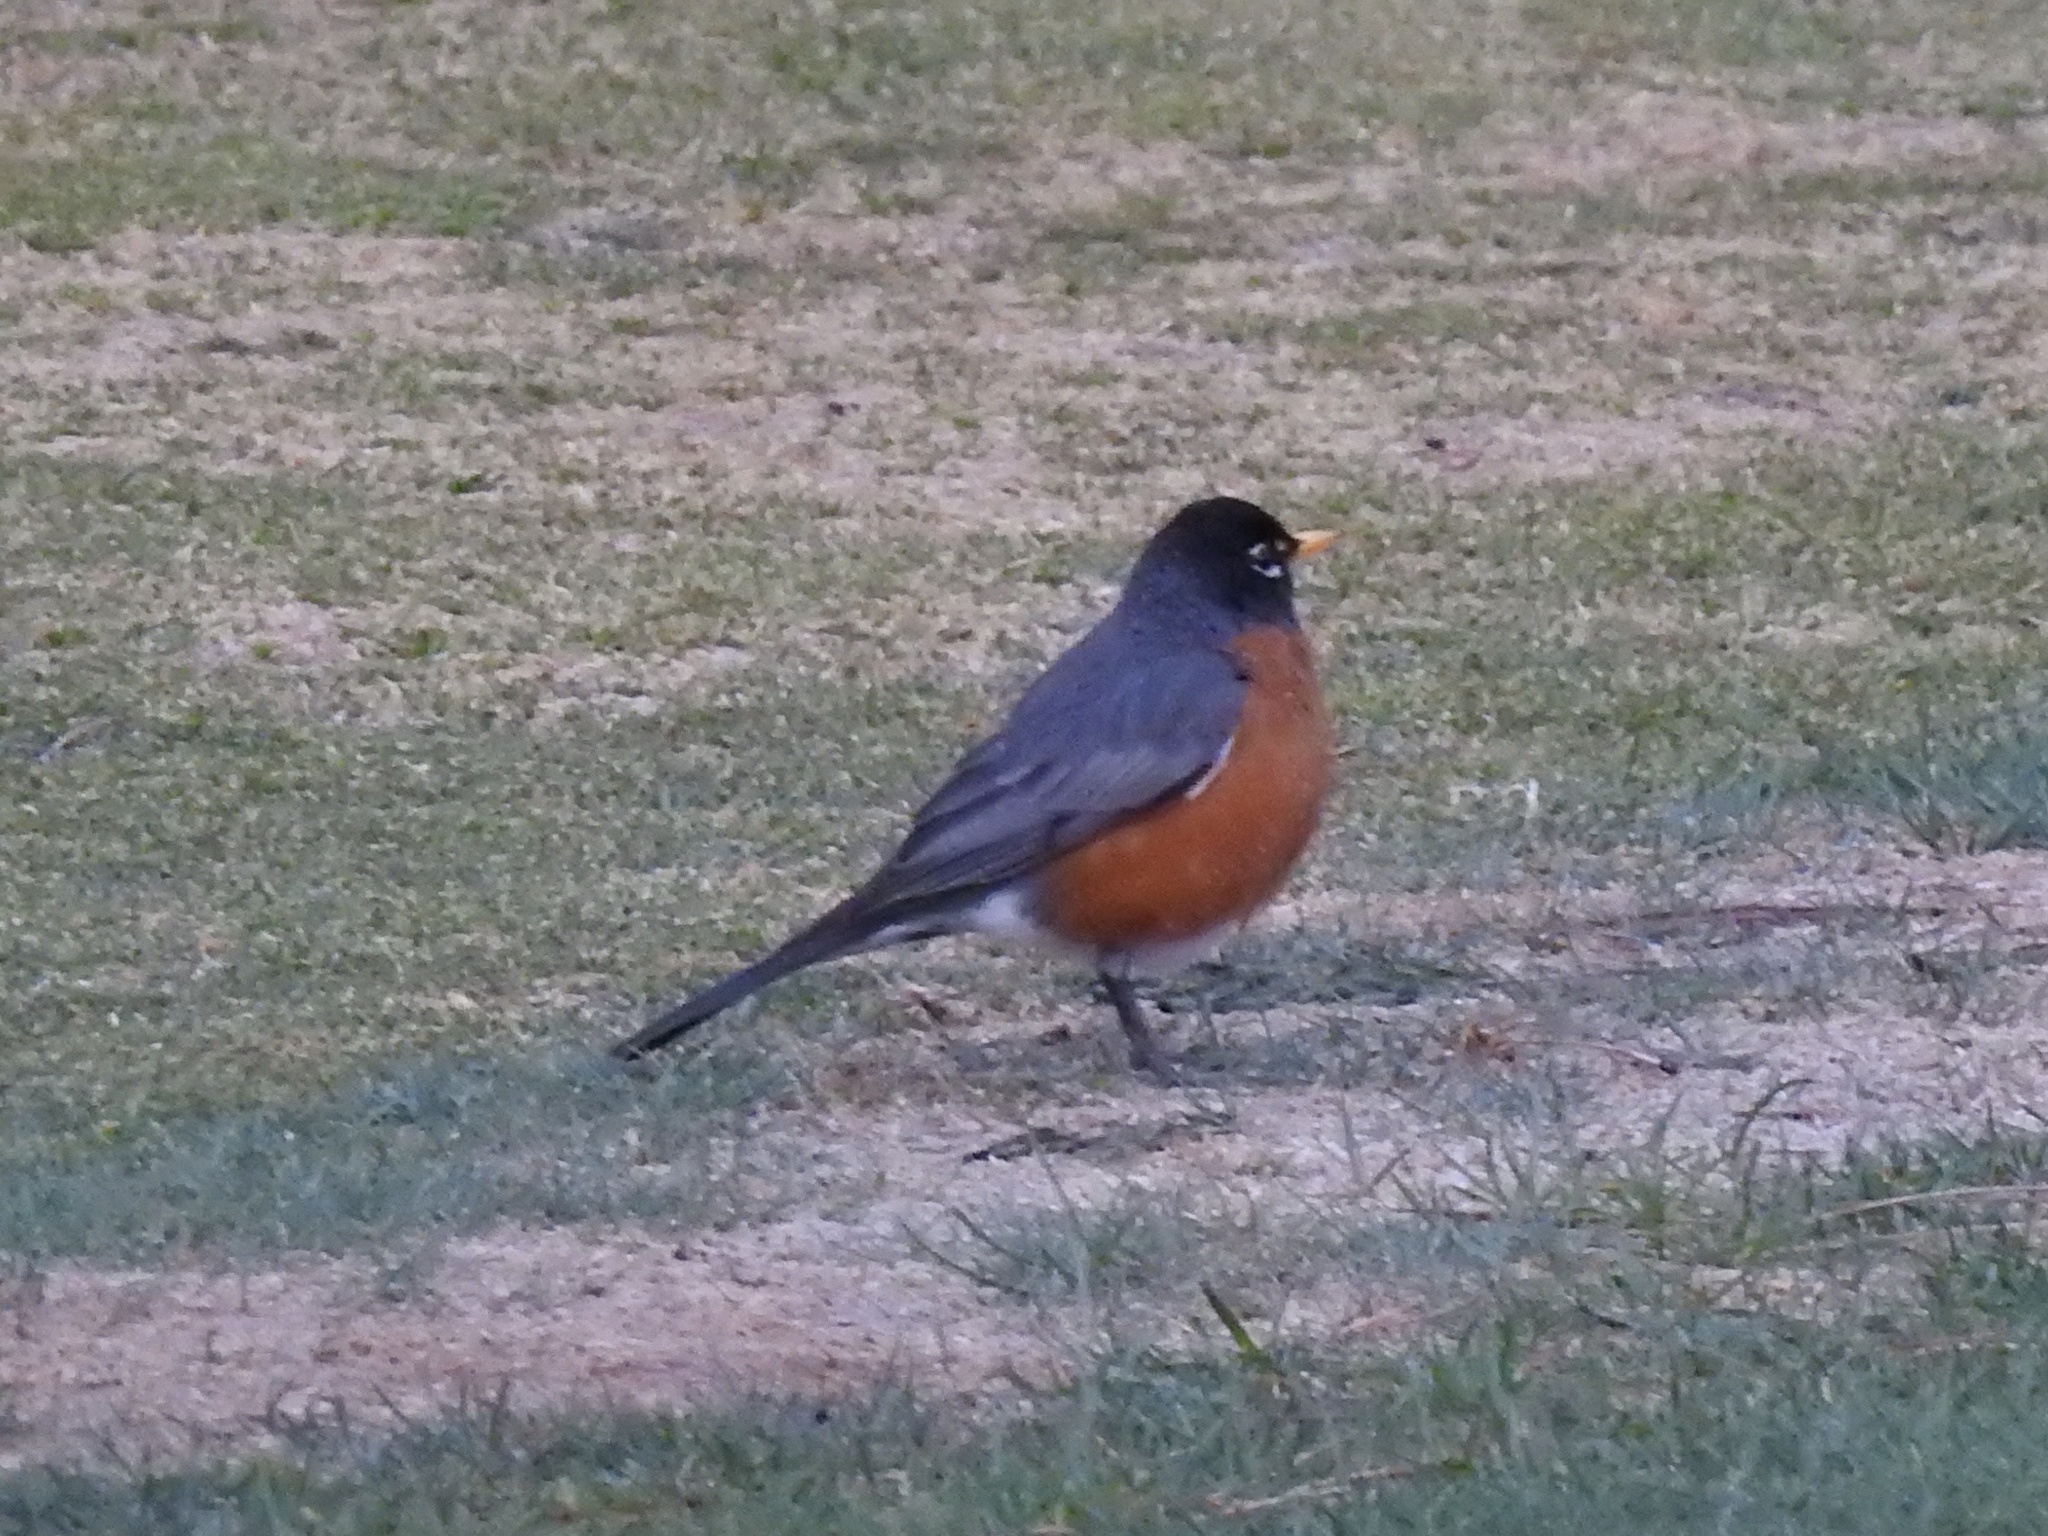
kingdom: Animalia
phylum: Chordata
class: Aves
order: Passeriformes
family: Turdidae
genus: Turdus
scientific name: Turdus migratorius
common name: American robin
